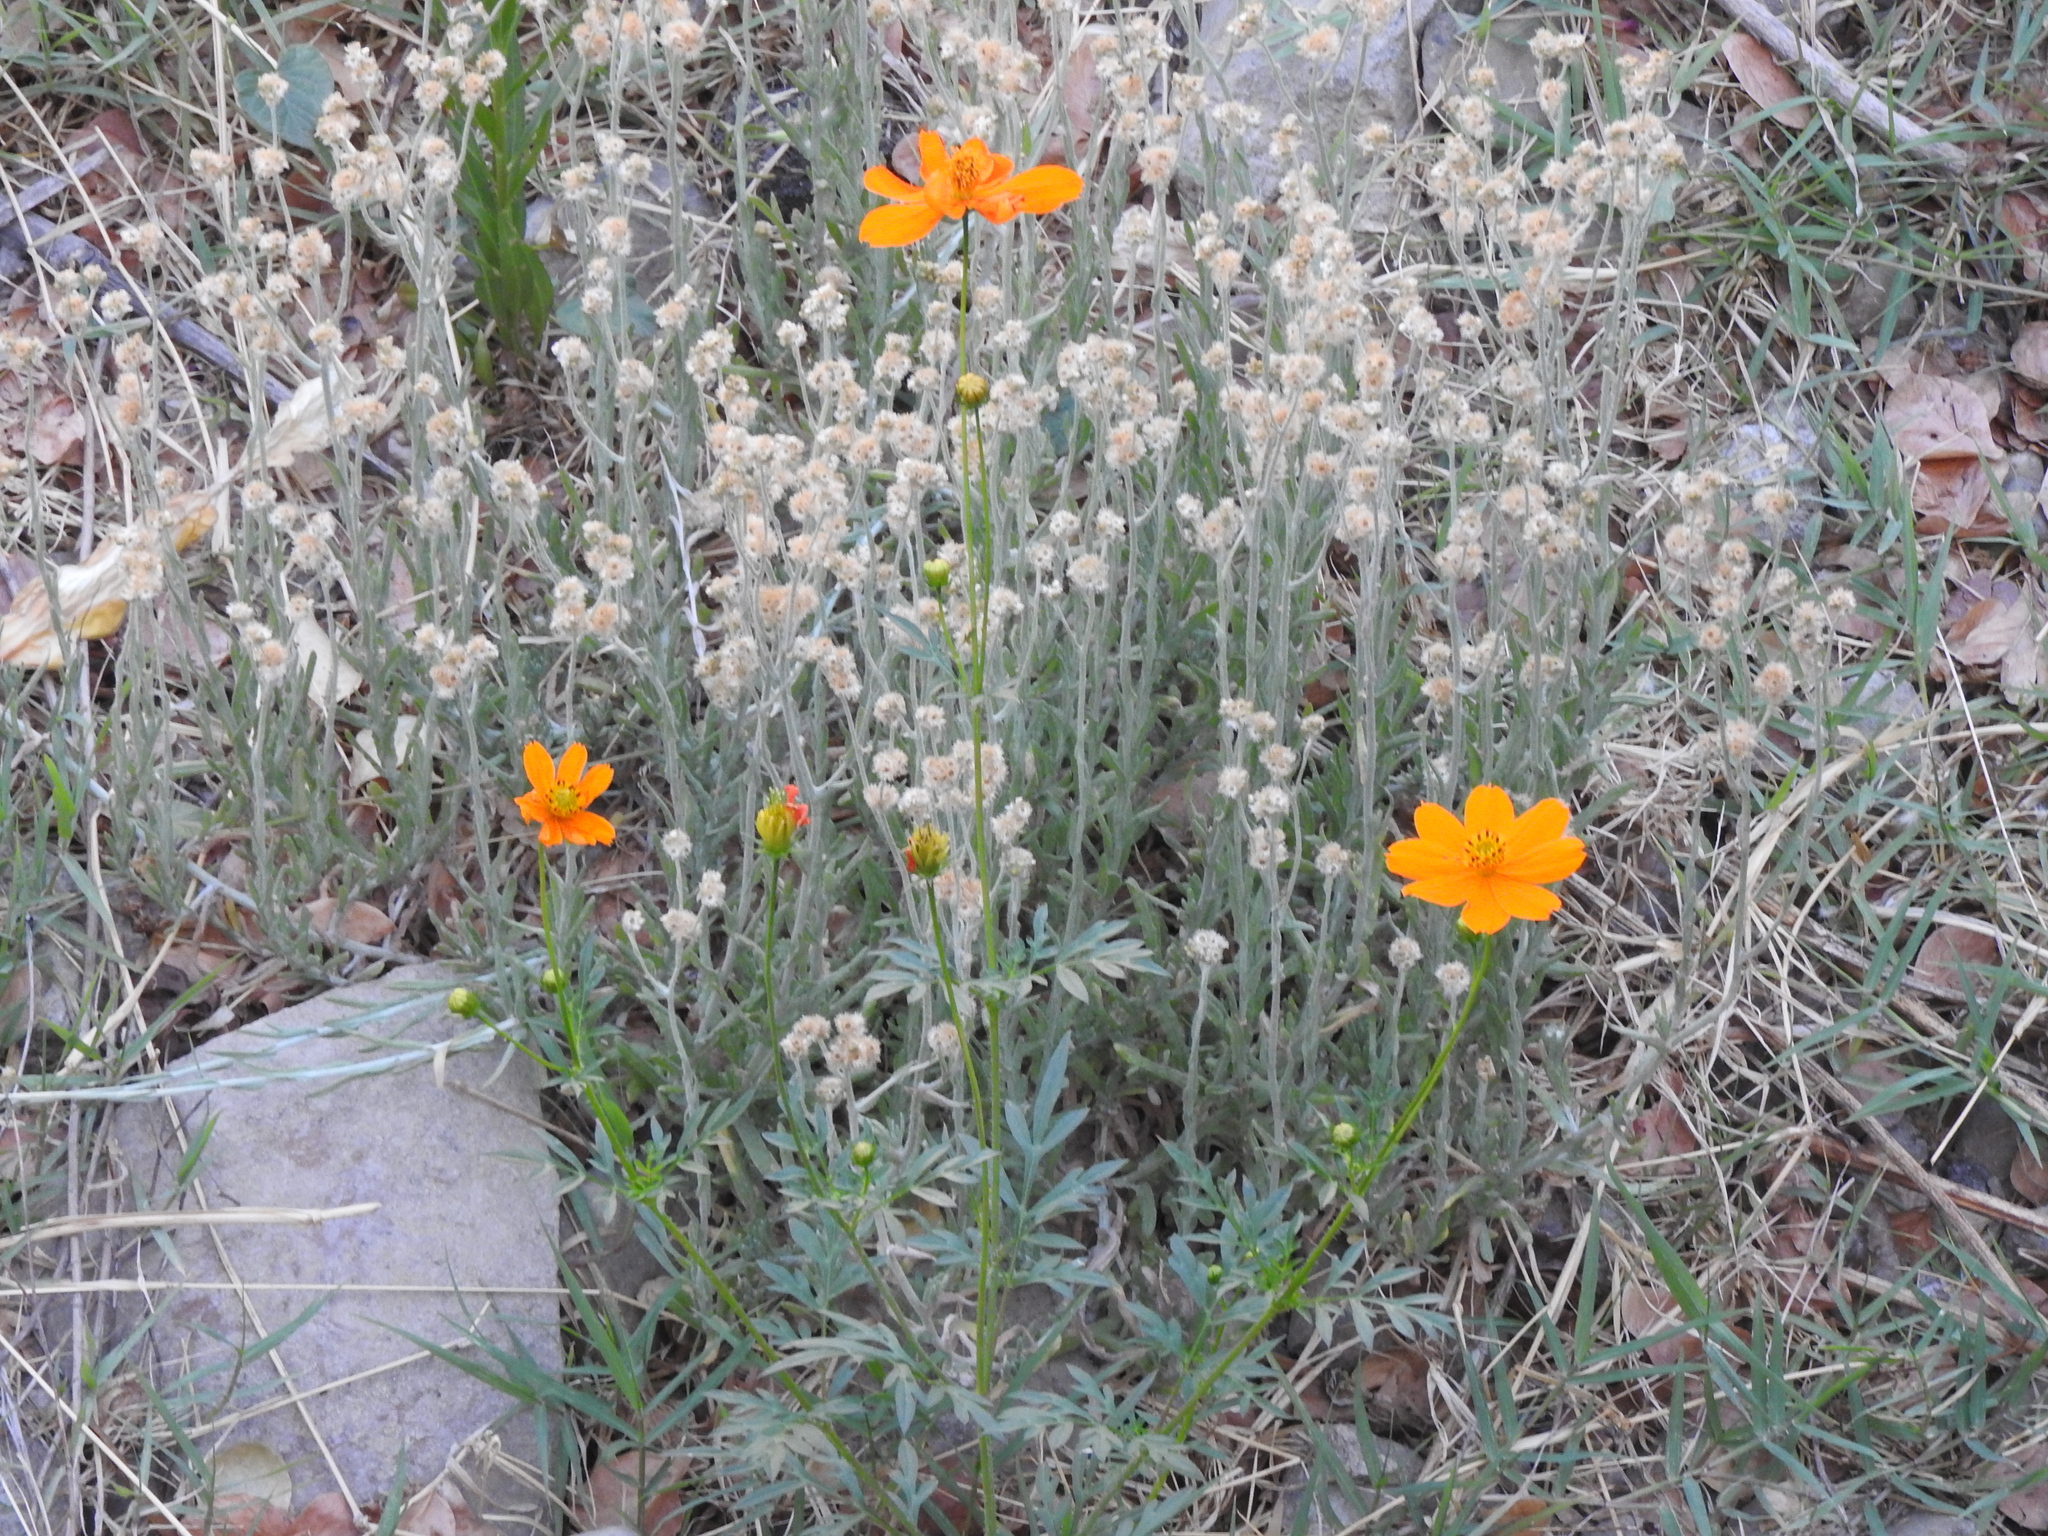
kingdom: Plantae
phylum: Tracheophyta
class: Magnoliopsida
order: Asterales
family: Asteraceae
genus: Cosmos
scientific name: Cosmos sulphureus
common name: Sulphur cosmos
